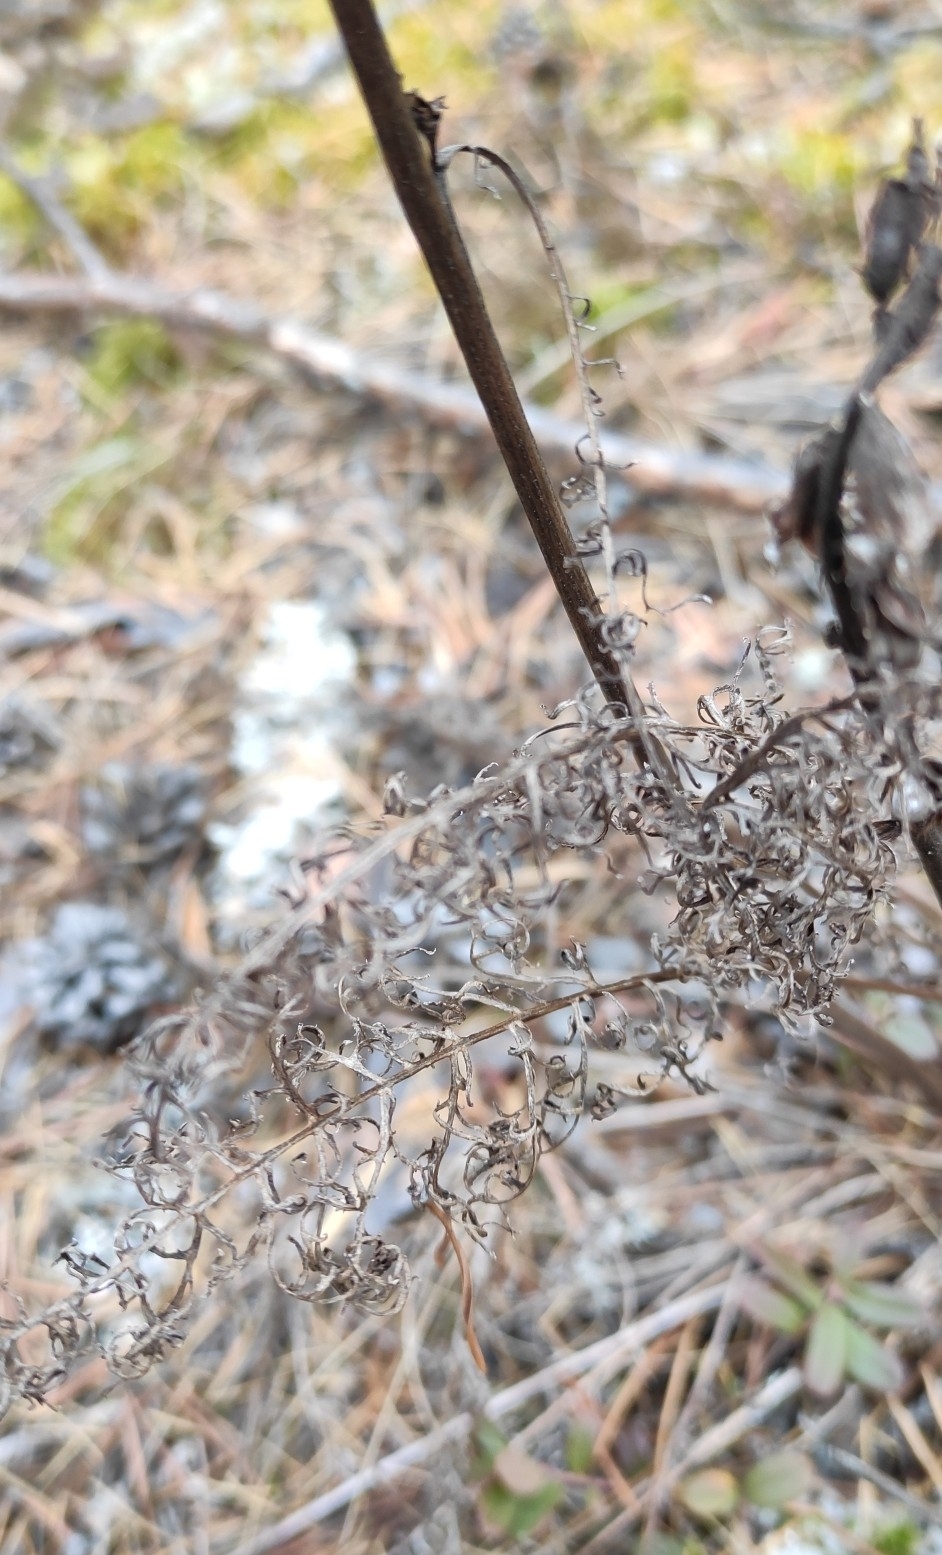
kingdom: Plantae
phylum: Tracheophyta
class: Magnoliopsida
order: Lamiales
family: Orobanchaceae
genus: Pedicularis
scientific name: Pedicularis rubens
